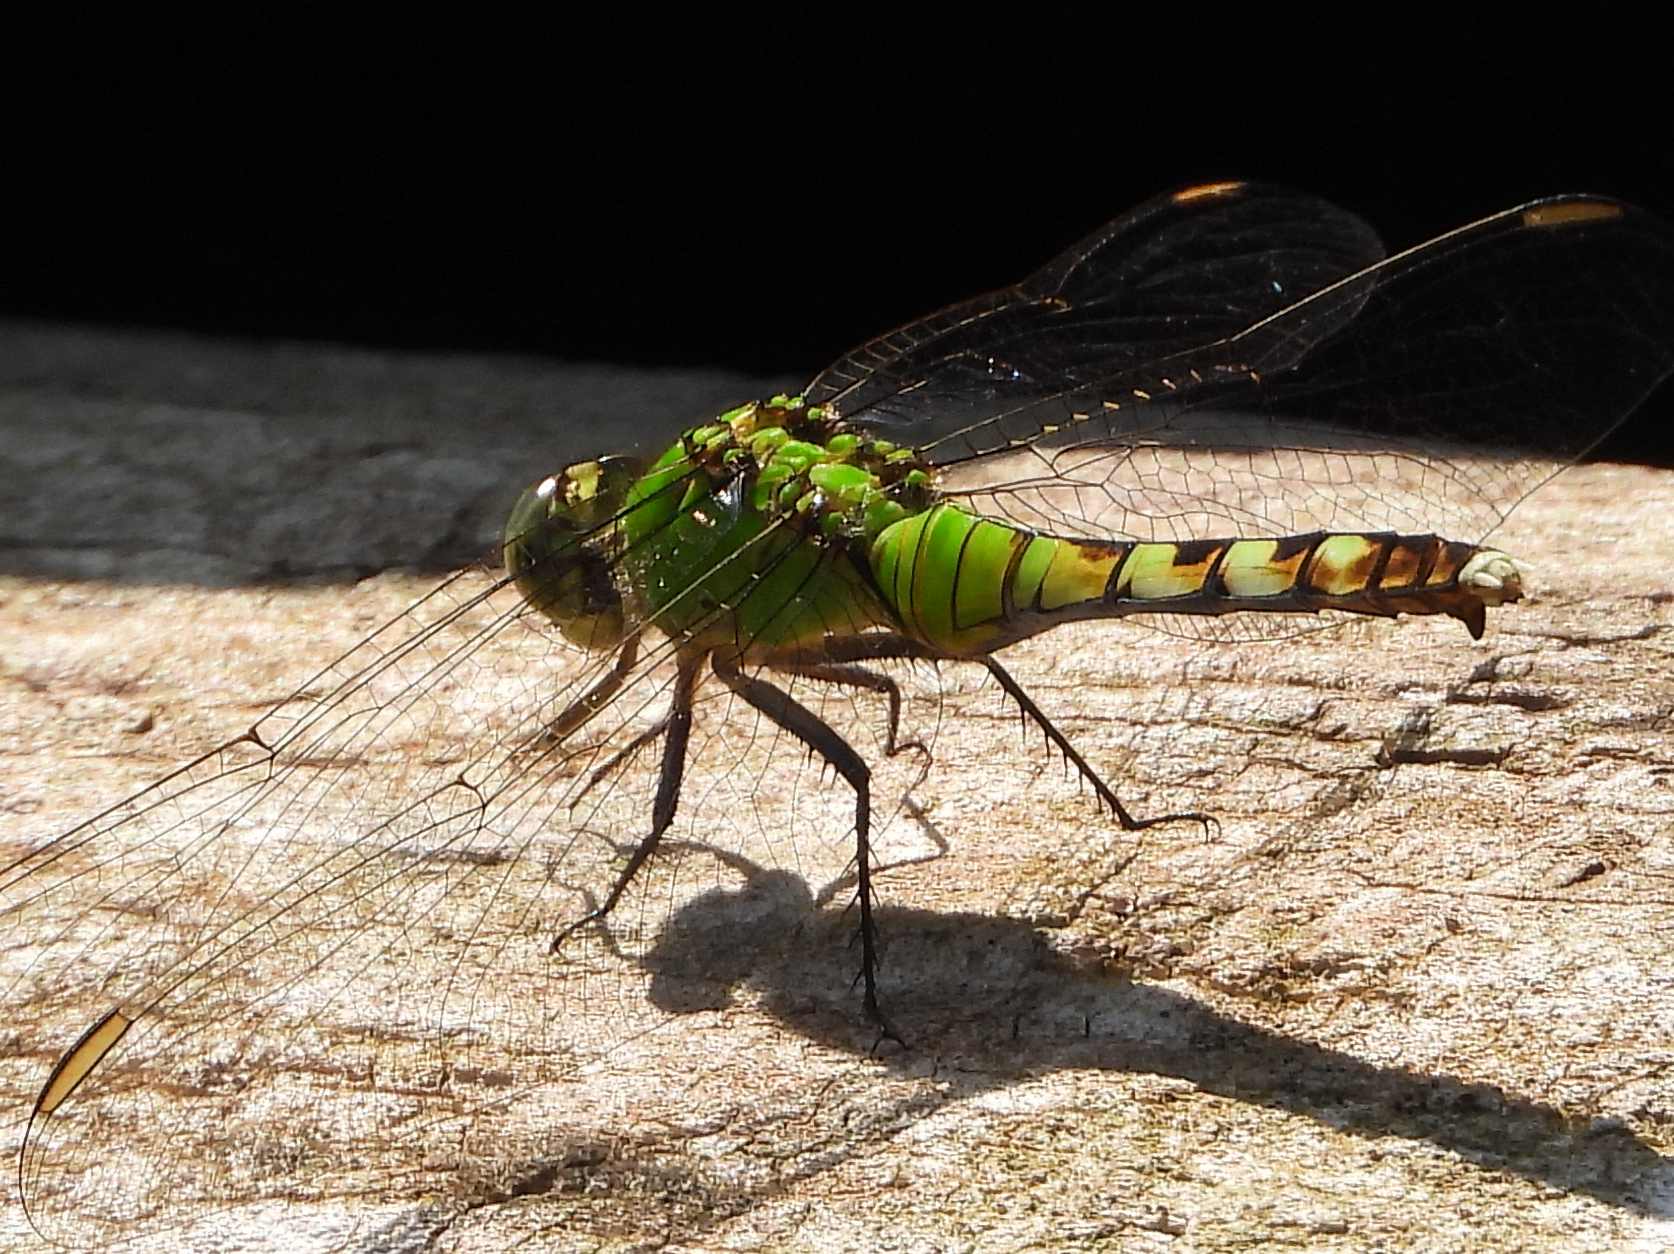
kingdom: Animalia
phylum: Arthropoda
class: Insecta
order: Odonata
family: Libellulidae
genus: Erythemis
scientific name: Erythemis simplicicollis
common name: Eastern pondhawk
